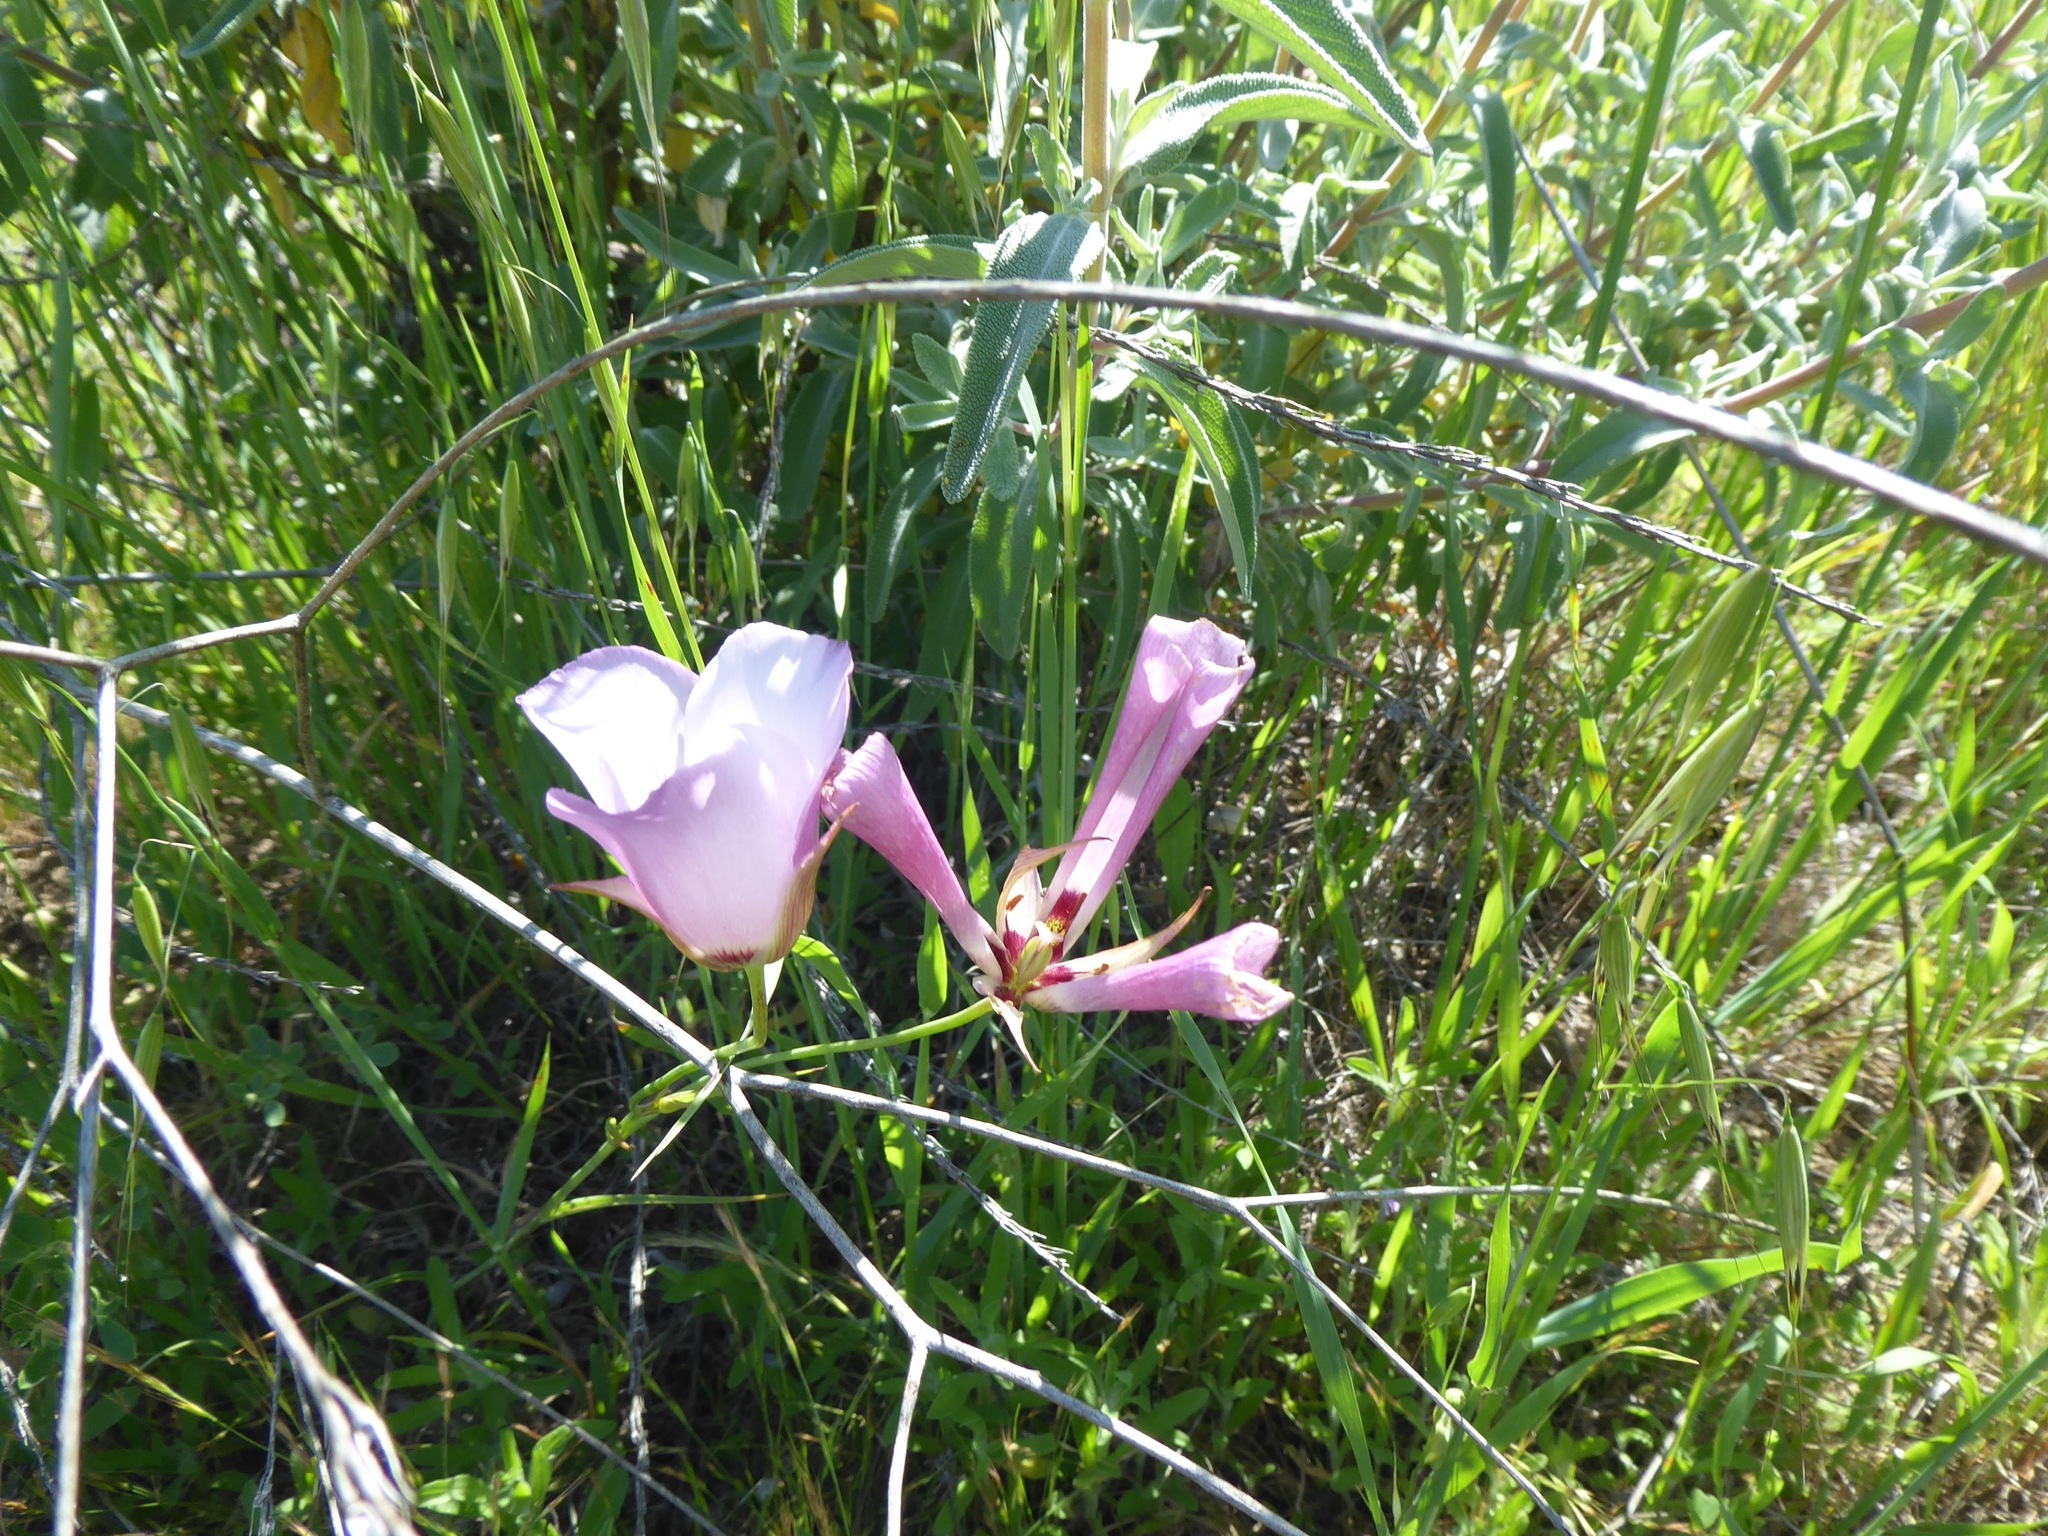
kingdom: Plantae
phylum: Tracheophyta
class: Liliopsida
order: Liliales
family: Liliaceae
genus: Calochortus
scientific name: Calochortus catalinae
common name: Catalina mariposa-lily
